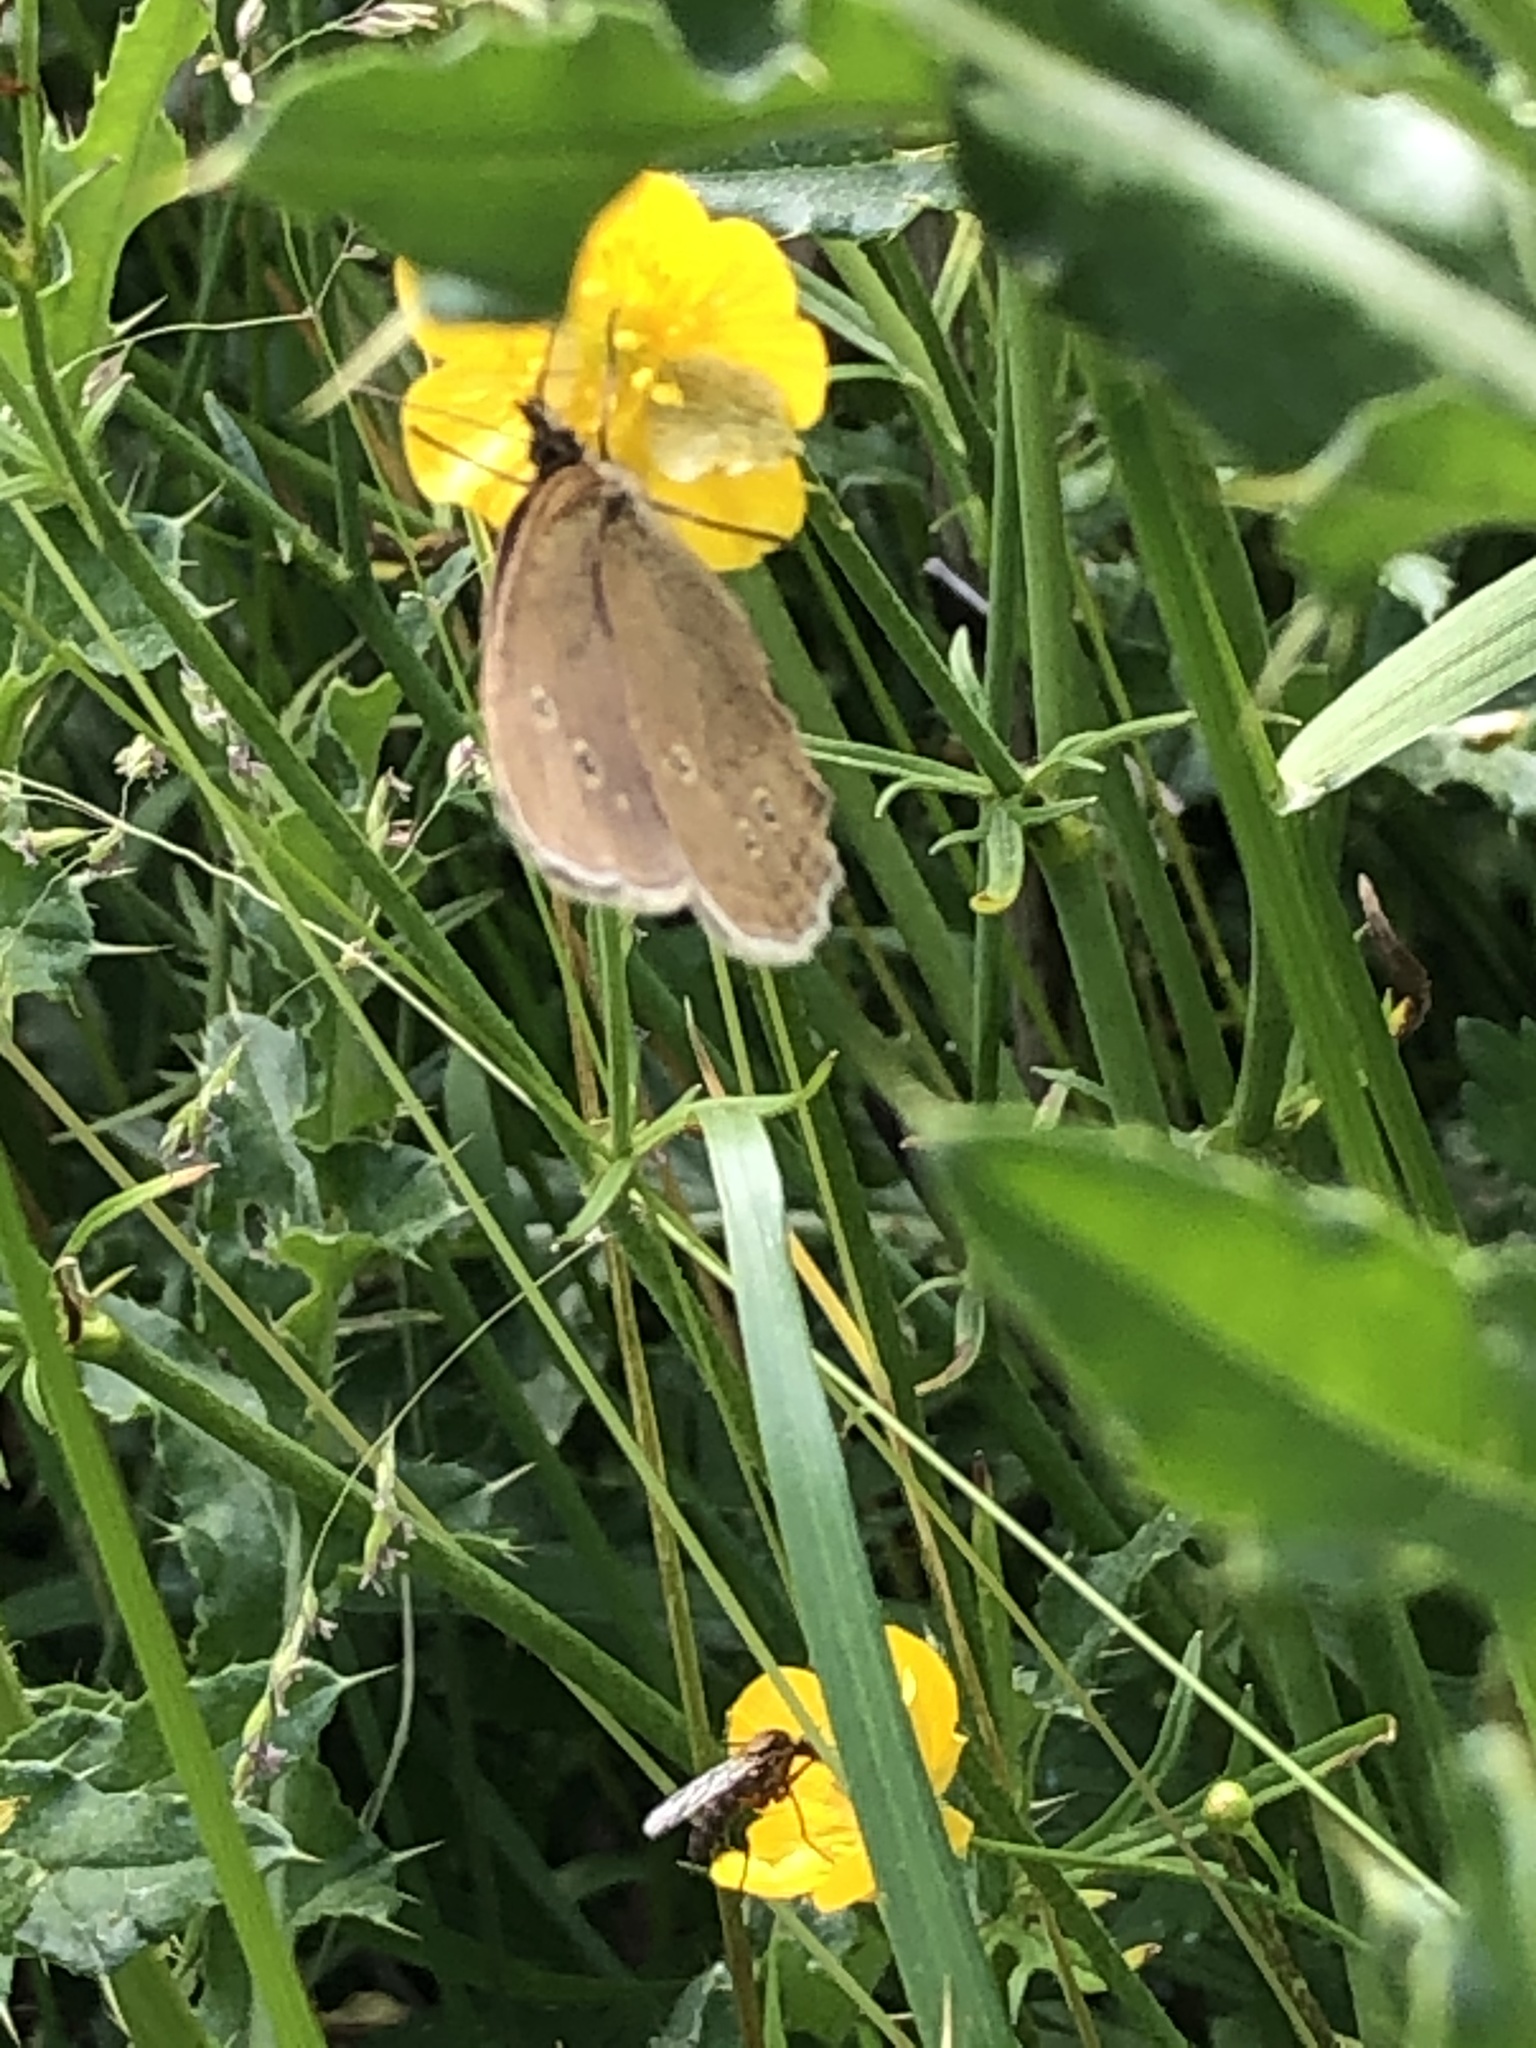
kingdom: Animalia
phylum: Arthropoda
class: Insecta
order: Lepidoptera
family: Nymphalidae
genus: Aphantopus
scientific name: Aphantopus hyperantus
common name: Ringlet
